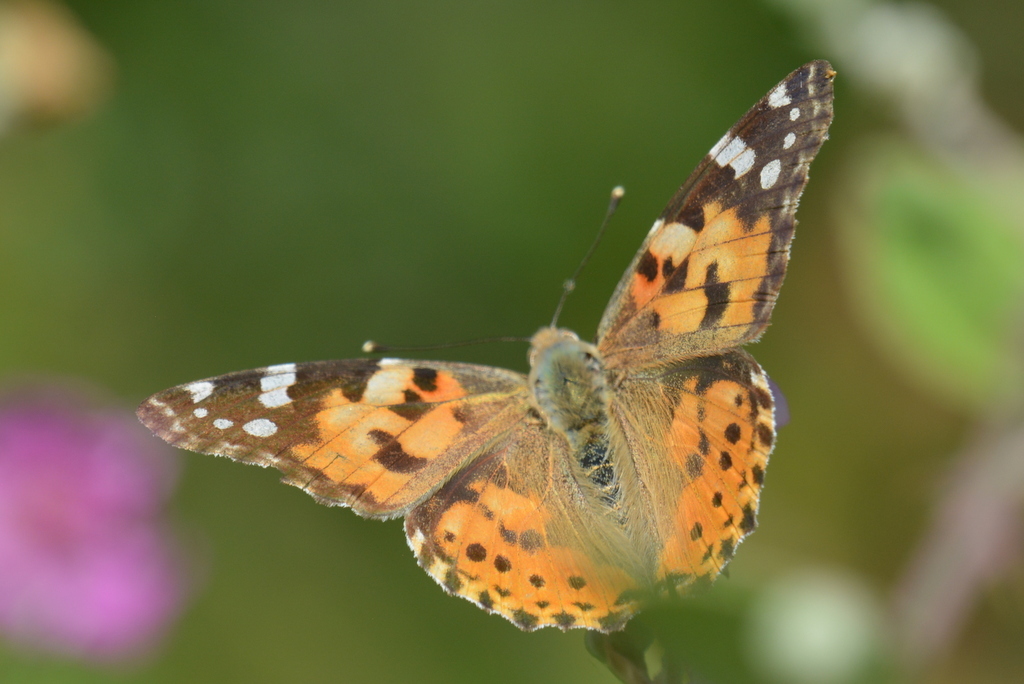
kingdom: Animalia
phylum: Arthropoda
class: Insecta
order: Lepidoptera
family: Nymphalidae
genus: Vanessa
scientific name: Vanessa cardui
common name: Painted lady
